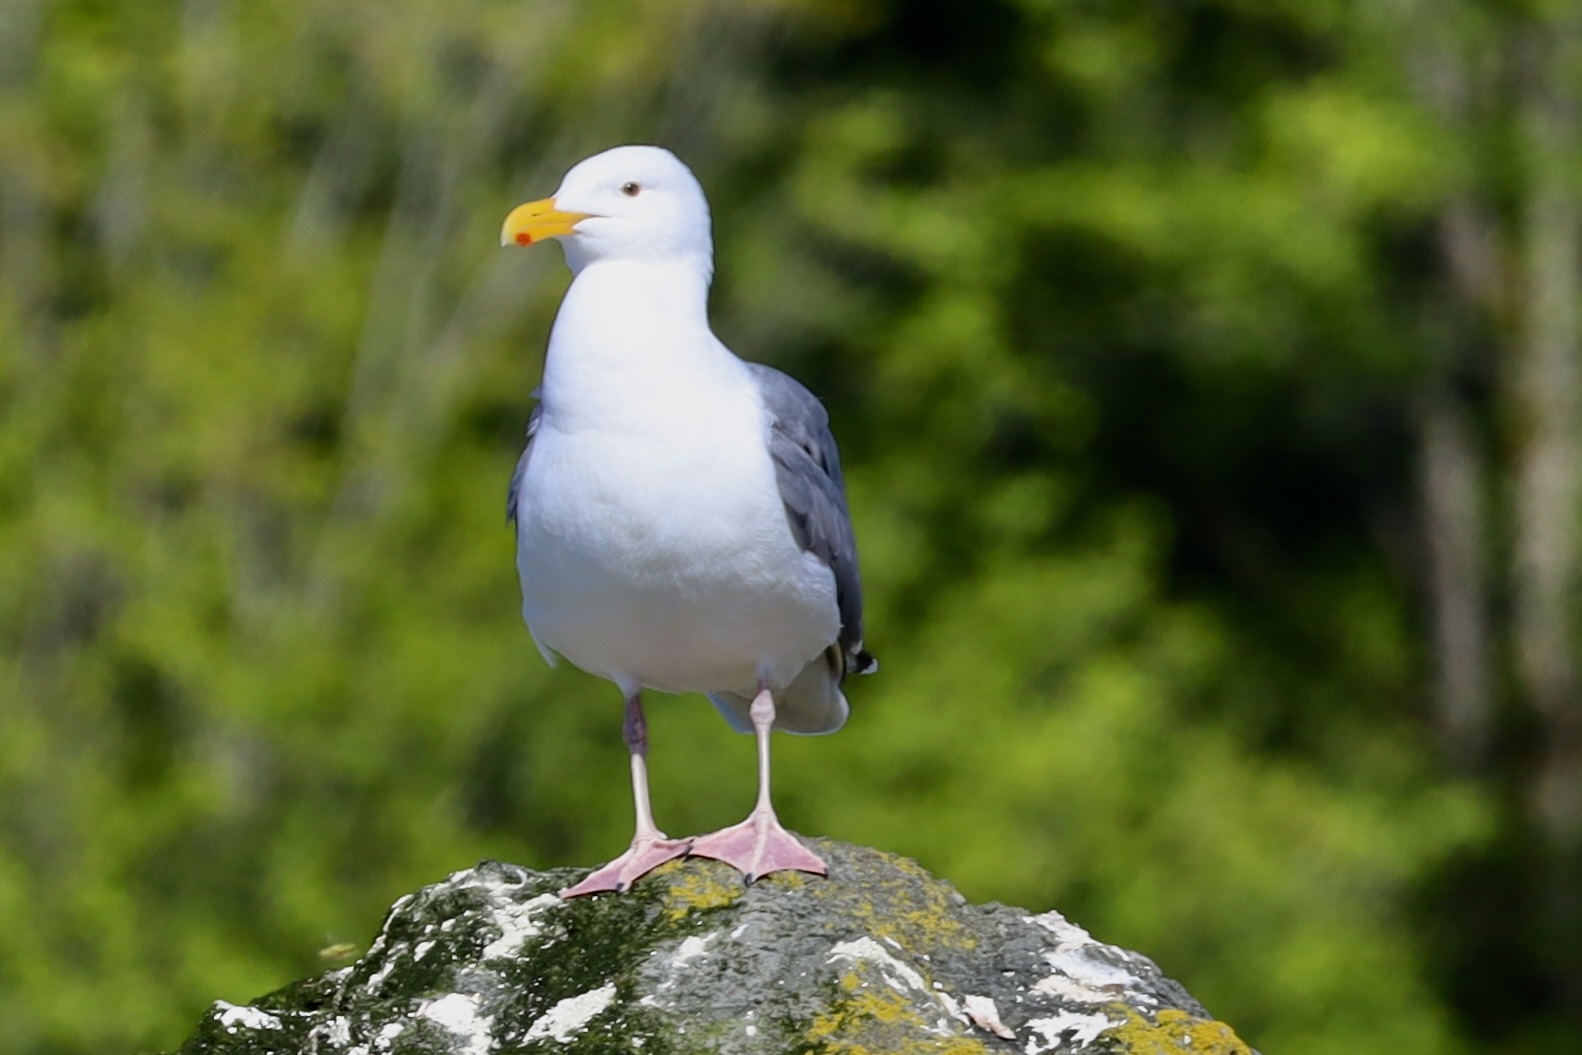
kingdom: Animalia
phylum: Chordata
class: Aves
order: Charadriiformes
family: Laridae
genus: Larus
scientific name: Larus
